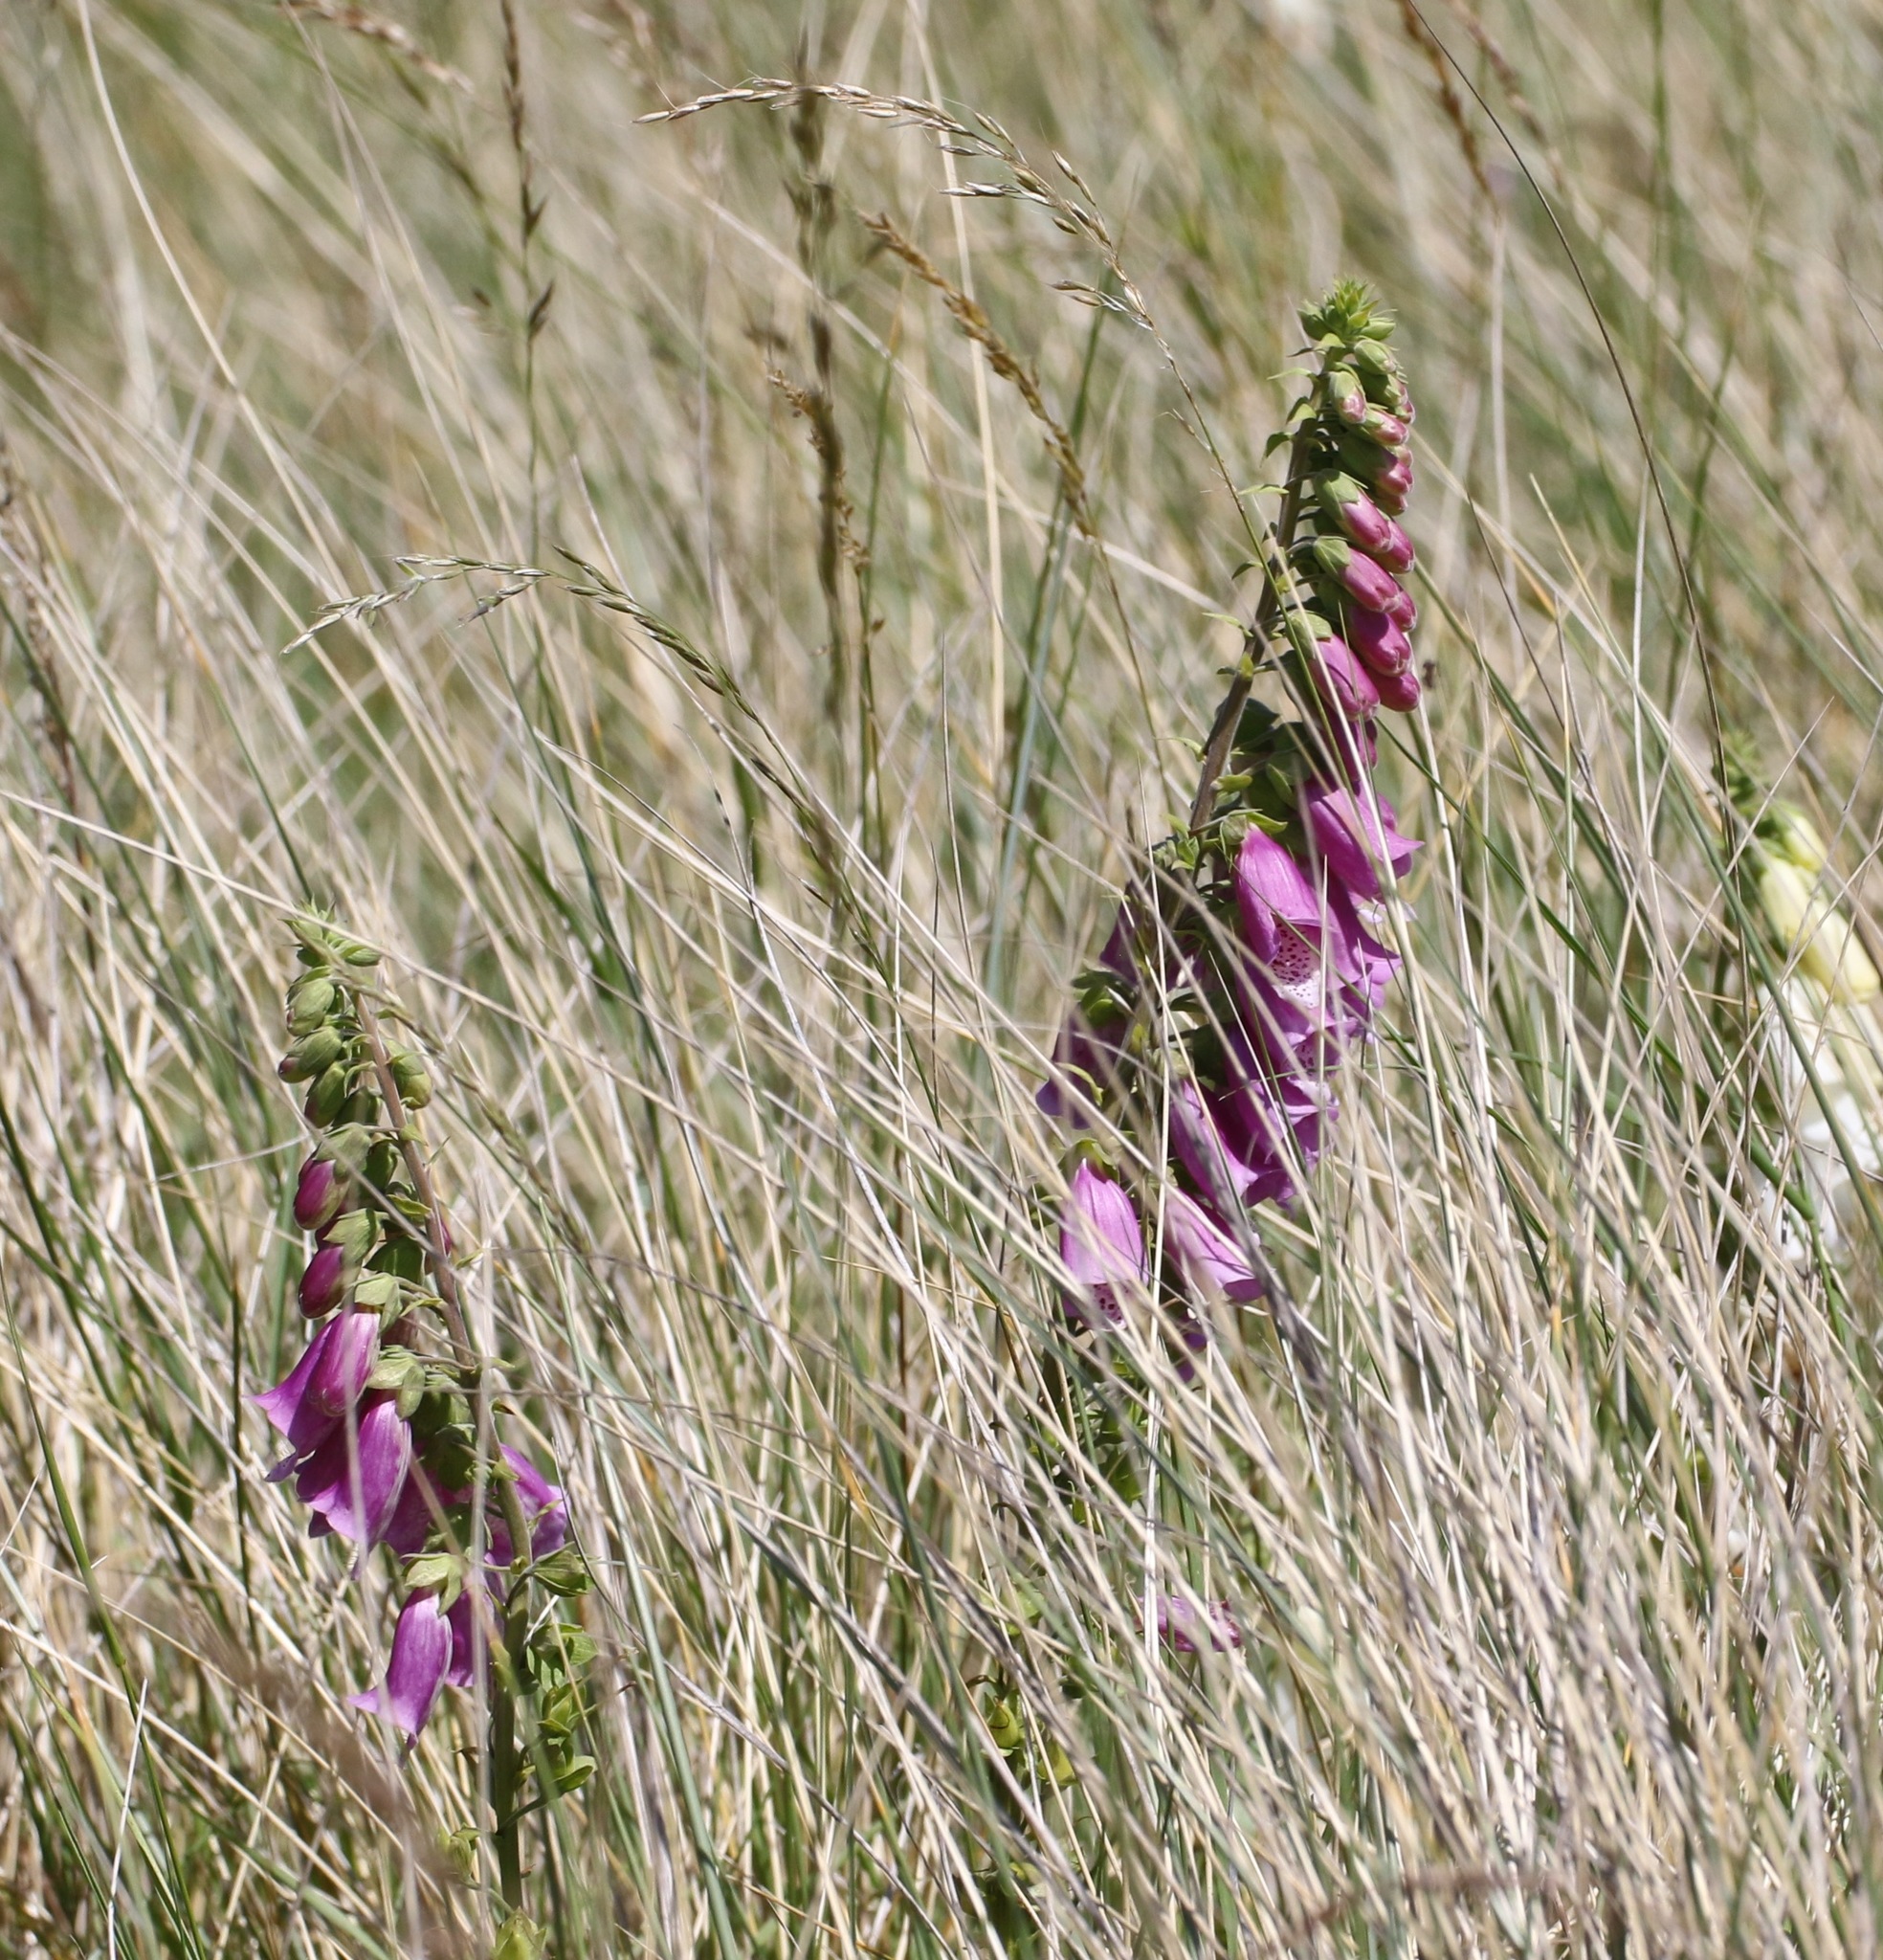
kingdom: Plantae
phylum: Tracheophyta
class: Magnoliopsida
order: Lamiales
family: Plantaginaceae
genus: Digitalis
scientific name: Digitalis purpurea
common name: Foxglove
